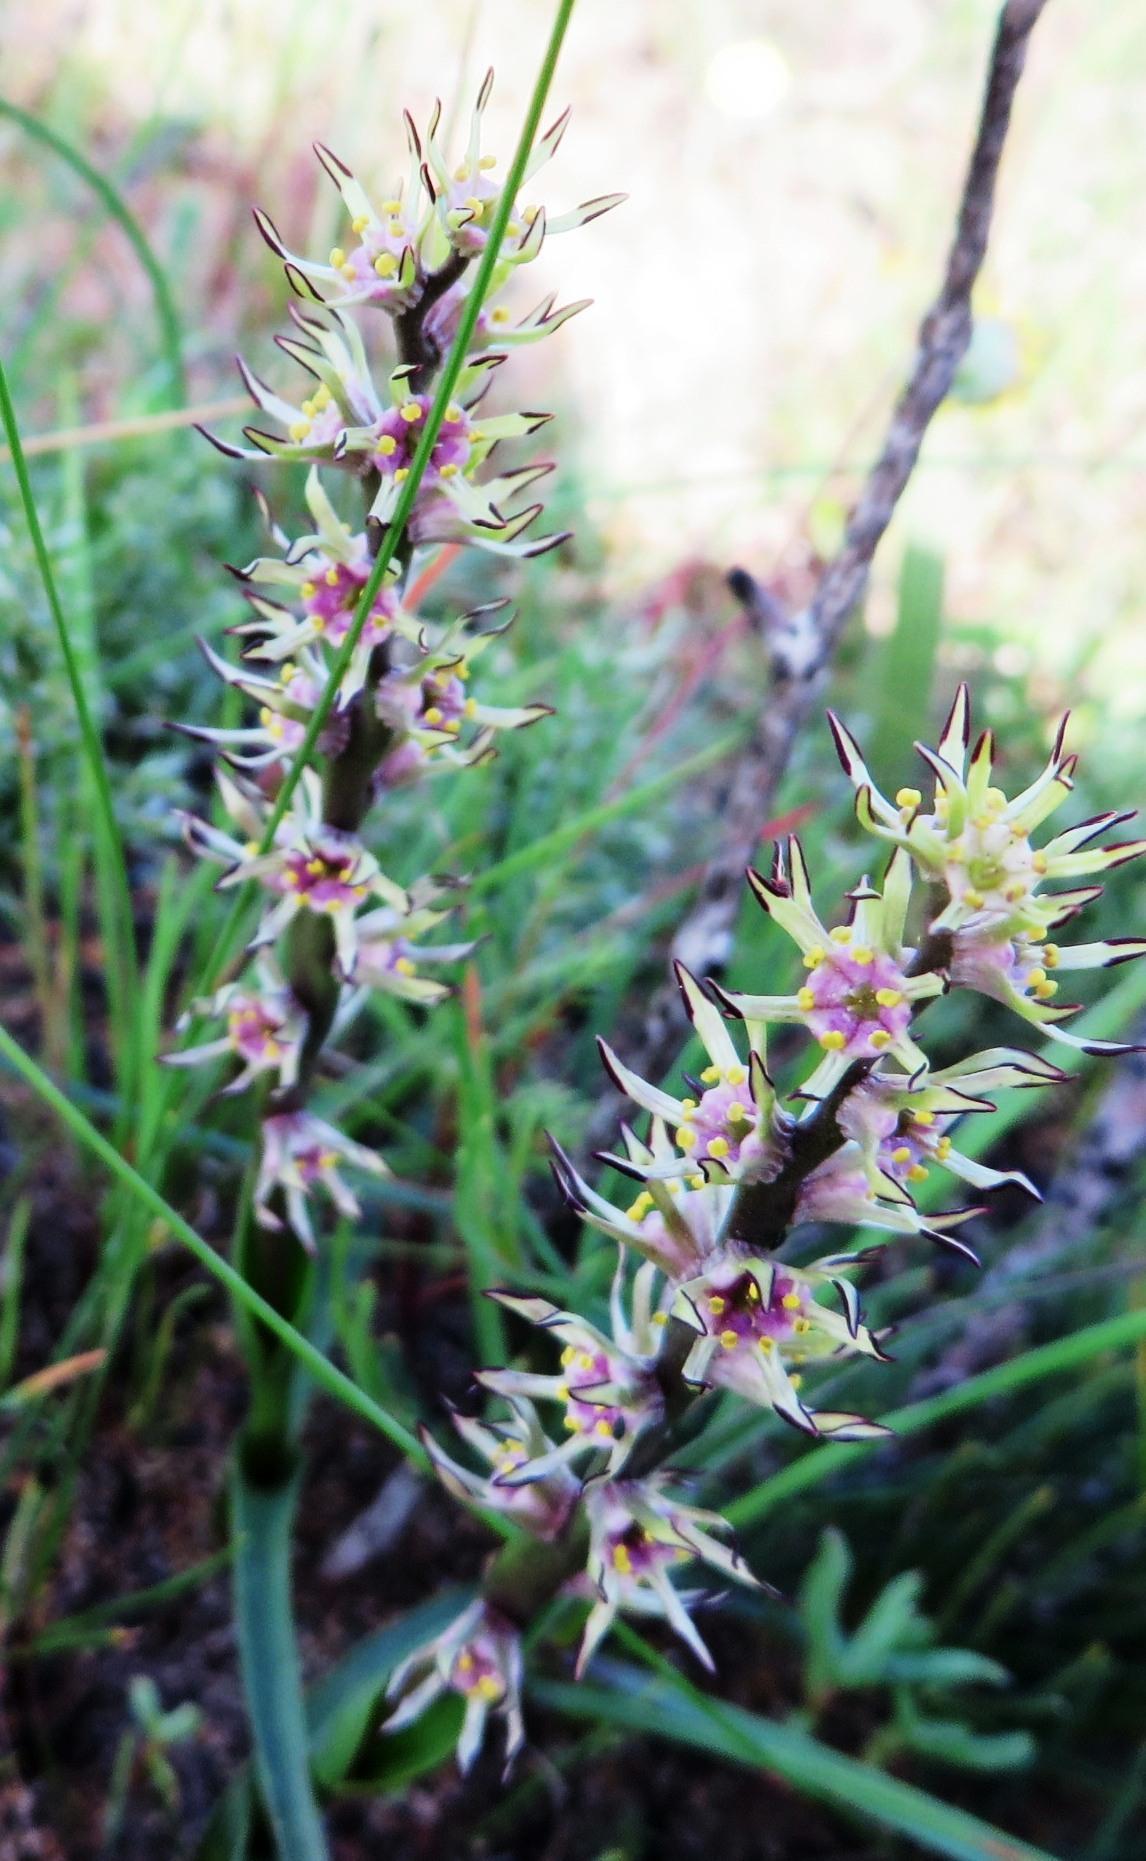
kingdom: Plantae
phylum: Tracheophyta
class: Liliopsida
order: Liliales
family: Colchicaceae
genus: Wurmbea
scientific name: Wurmbea monopetala
